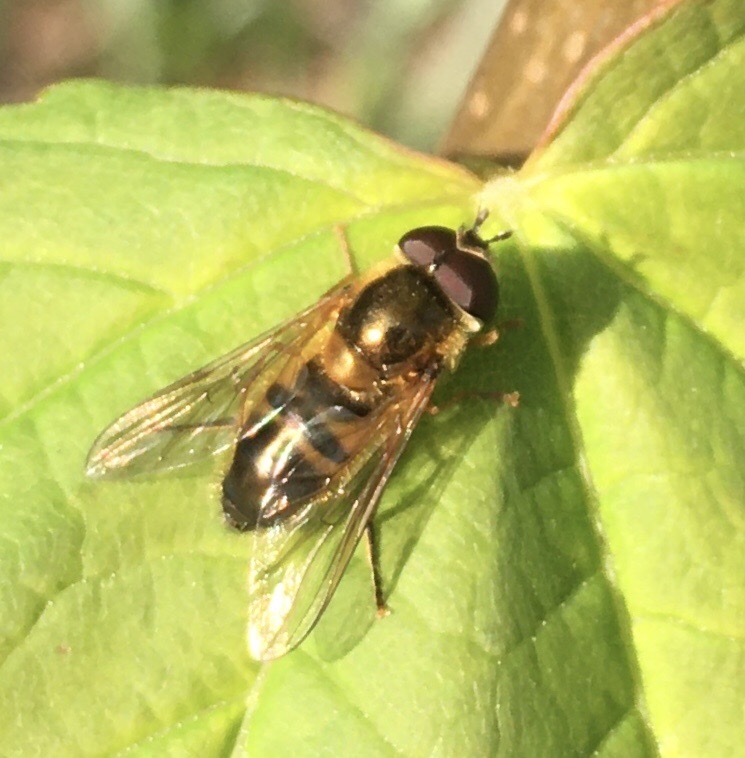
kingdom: Animalia
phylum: Arthropoda
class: Insecta
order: Diptera
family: Syrphidae
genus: Epistrophe
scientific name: Epistrophe eligans
